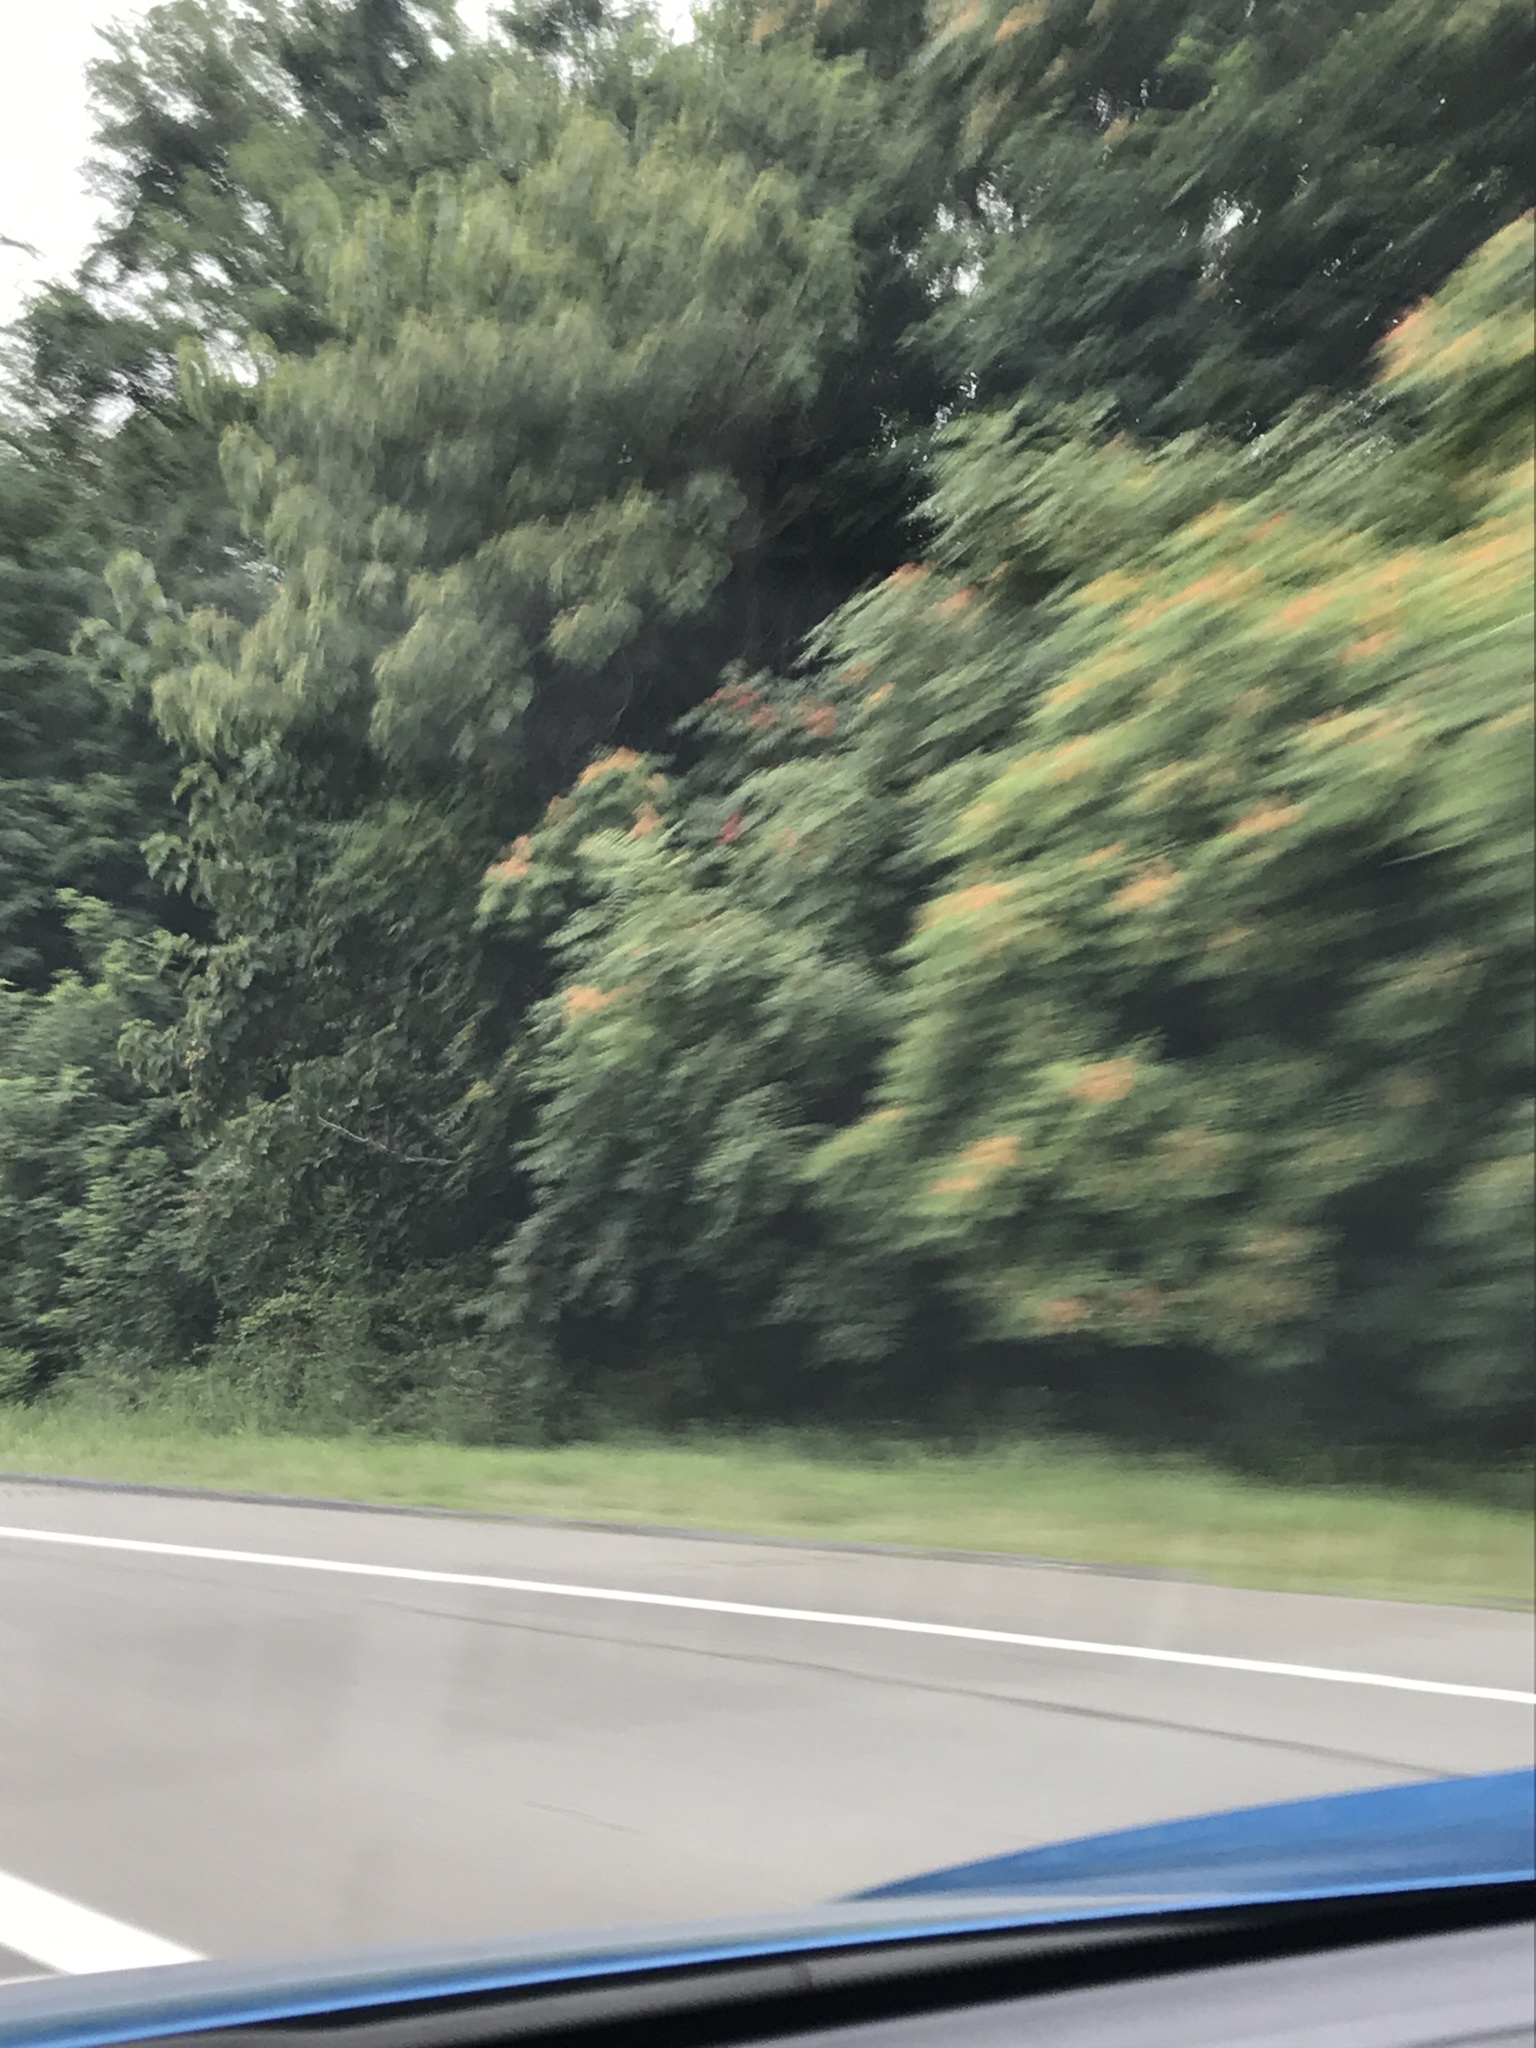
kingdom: Plantae
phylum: Tracheophyta
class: Magnoliopsida
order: Sapindales
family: Simaroubaceae
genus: Ailanthus
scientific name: Ailanthus altissima
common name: Tree-of-heaven
